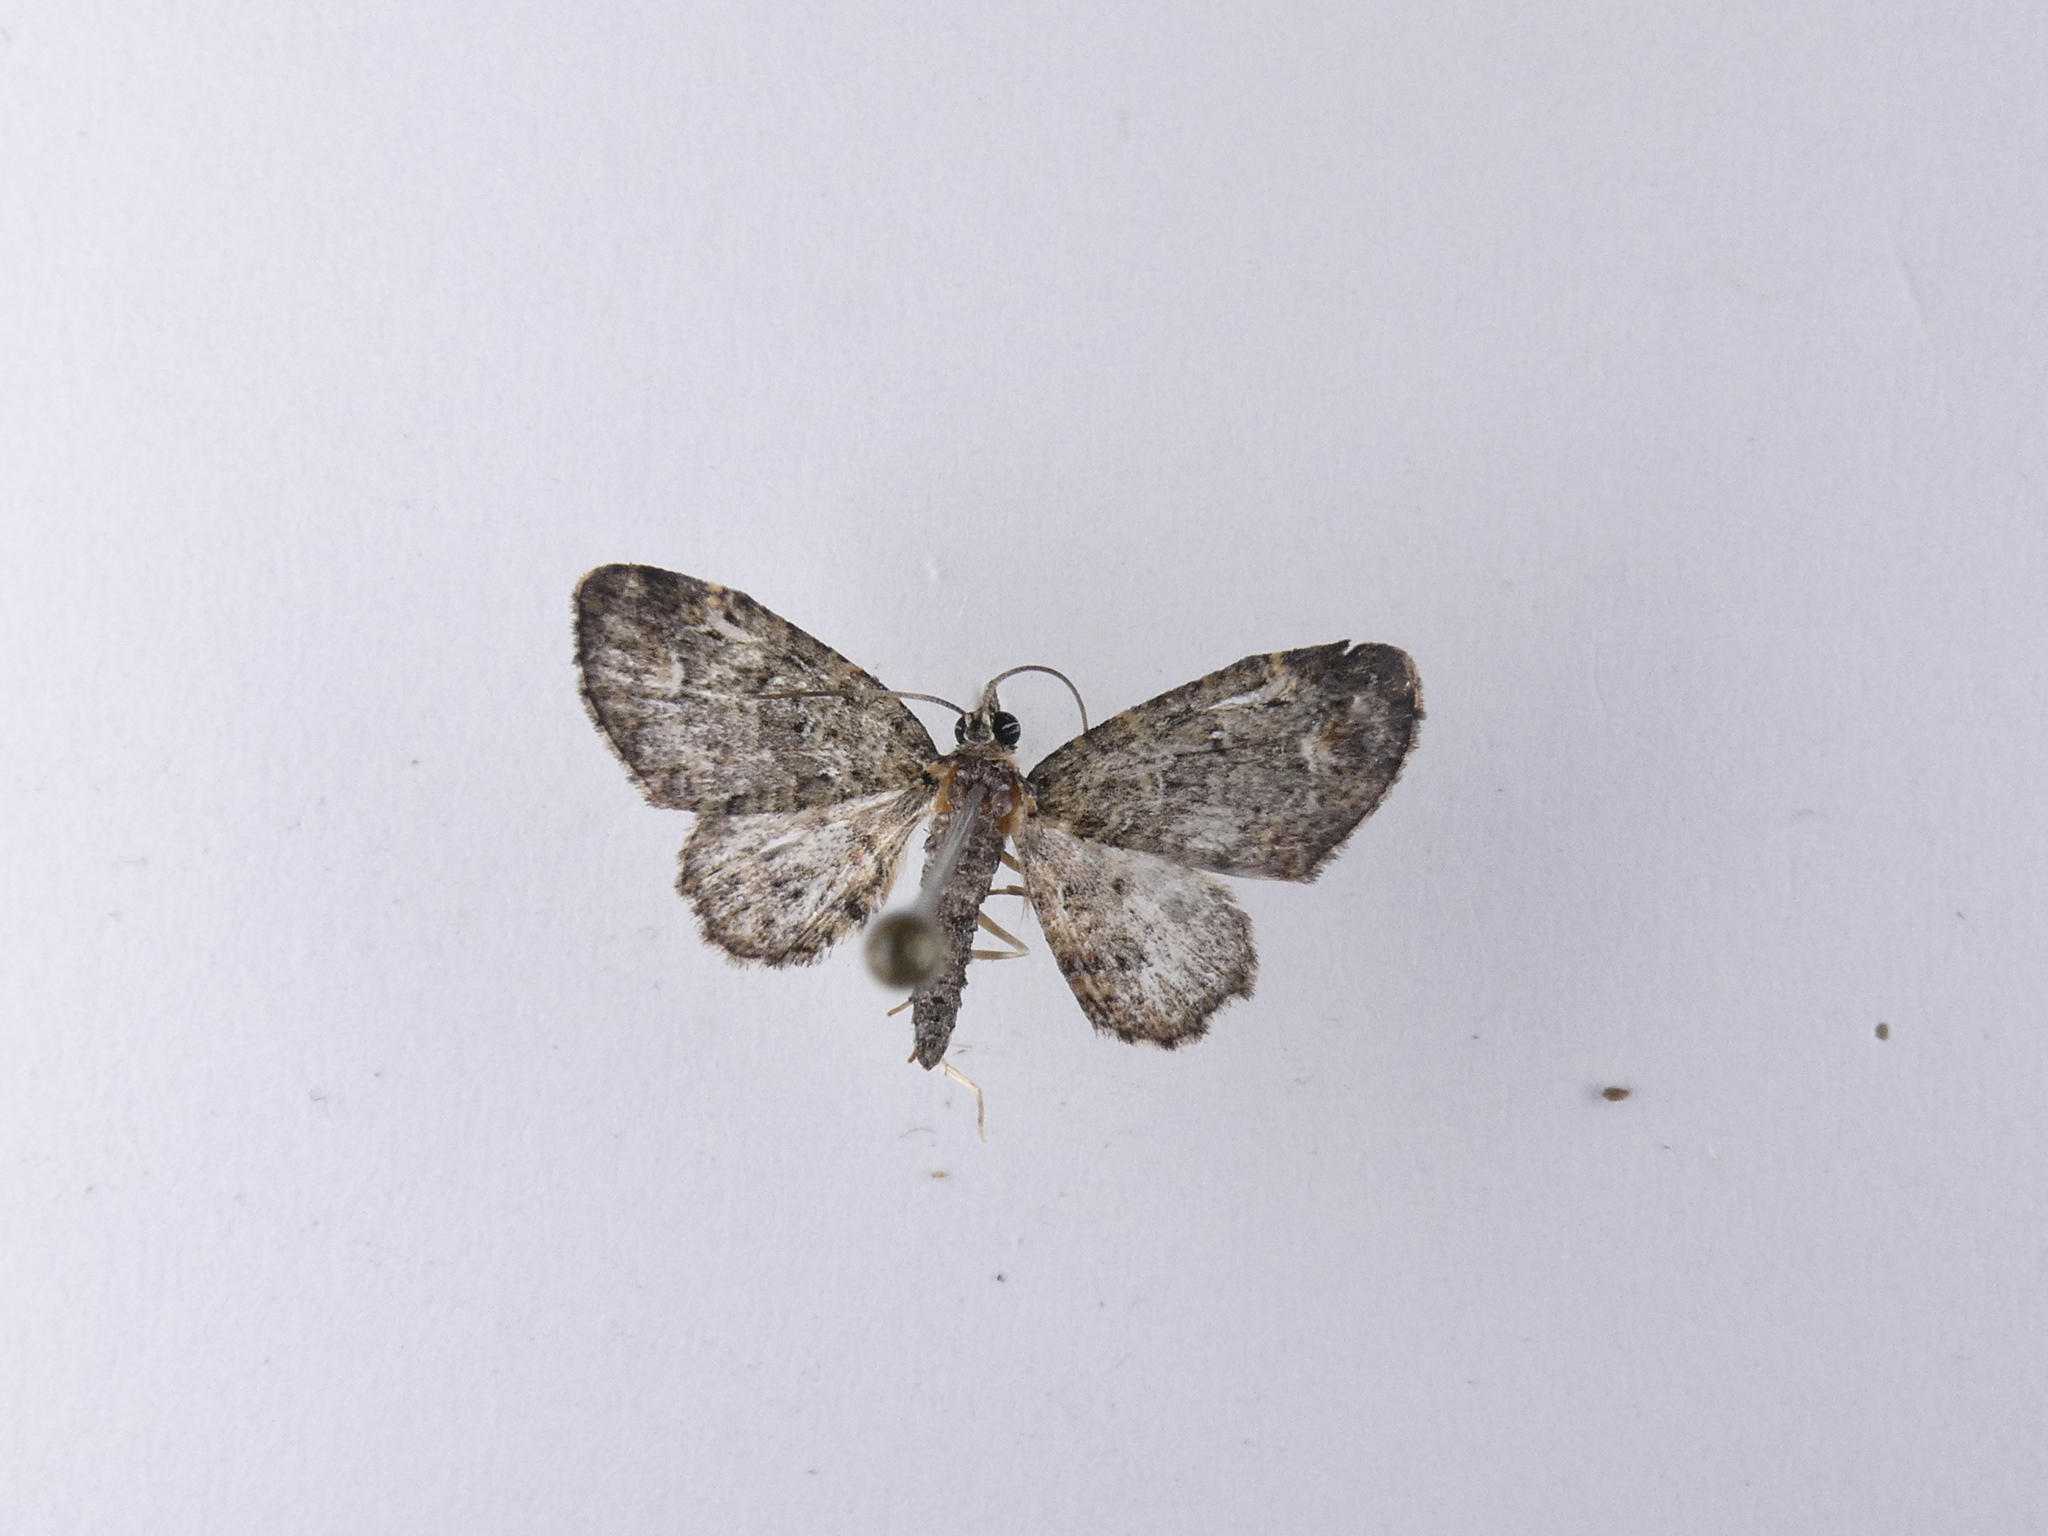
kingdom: Animalia
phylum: Arthropoda
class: Insecta
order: Lepidoptera
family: Geometridae
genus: Pasiphilodes
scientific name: Pasiphilodes testulata
